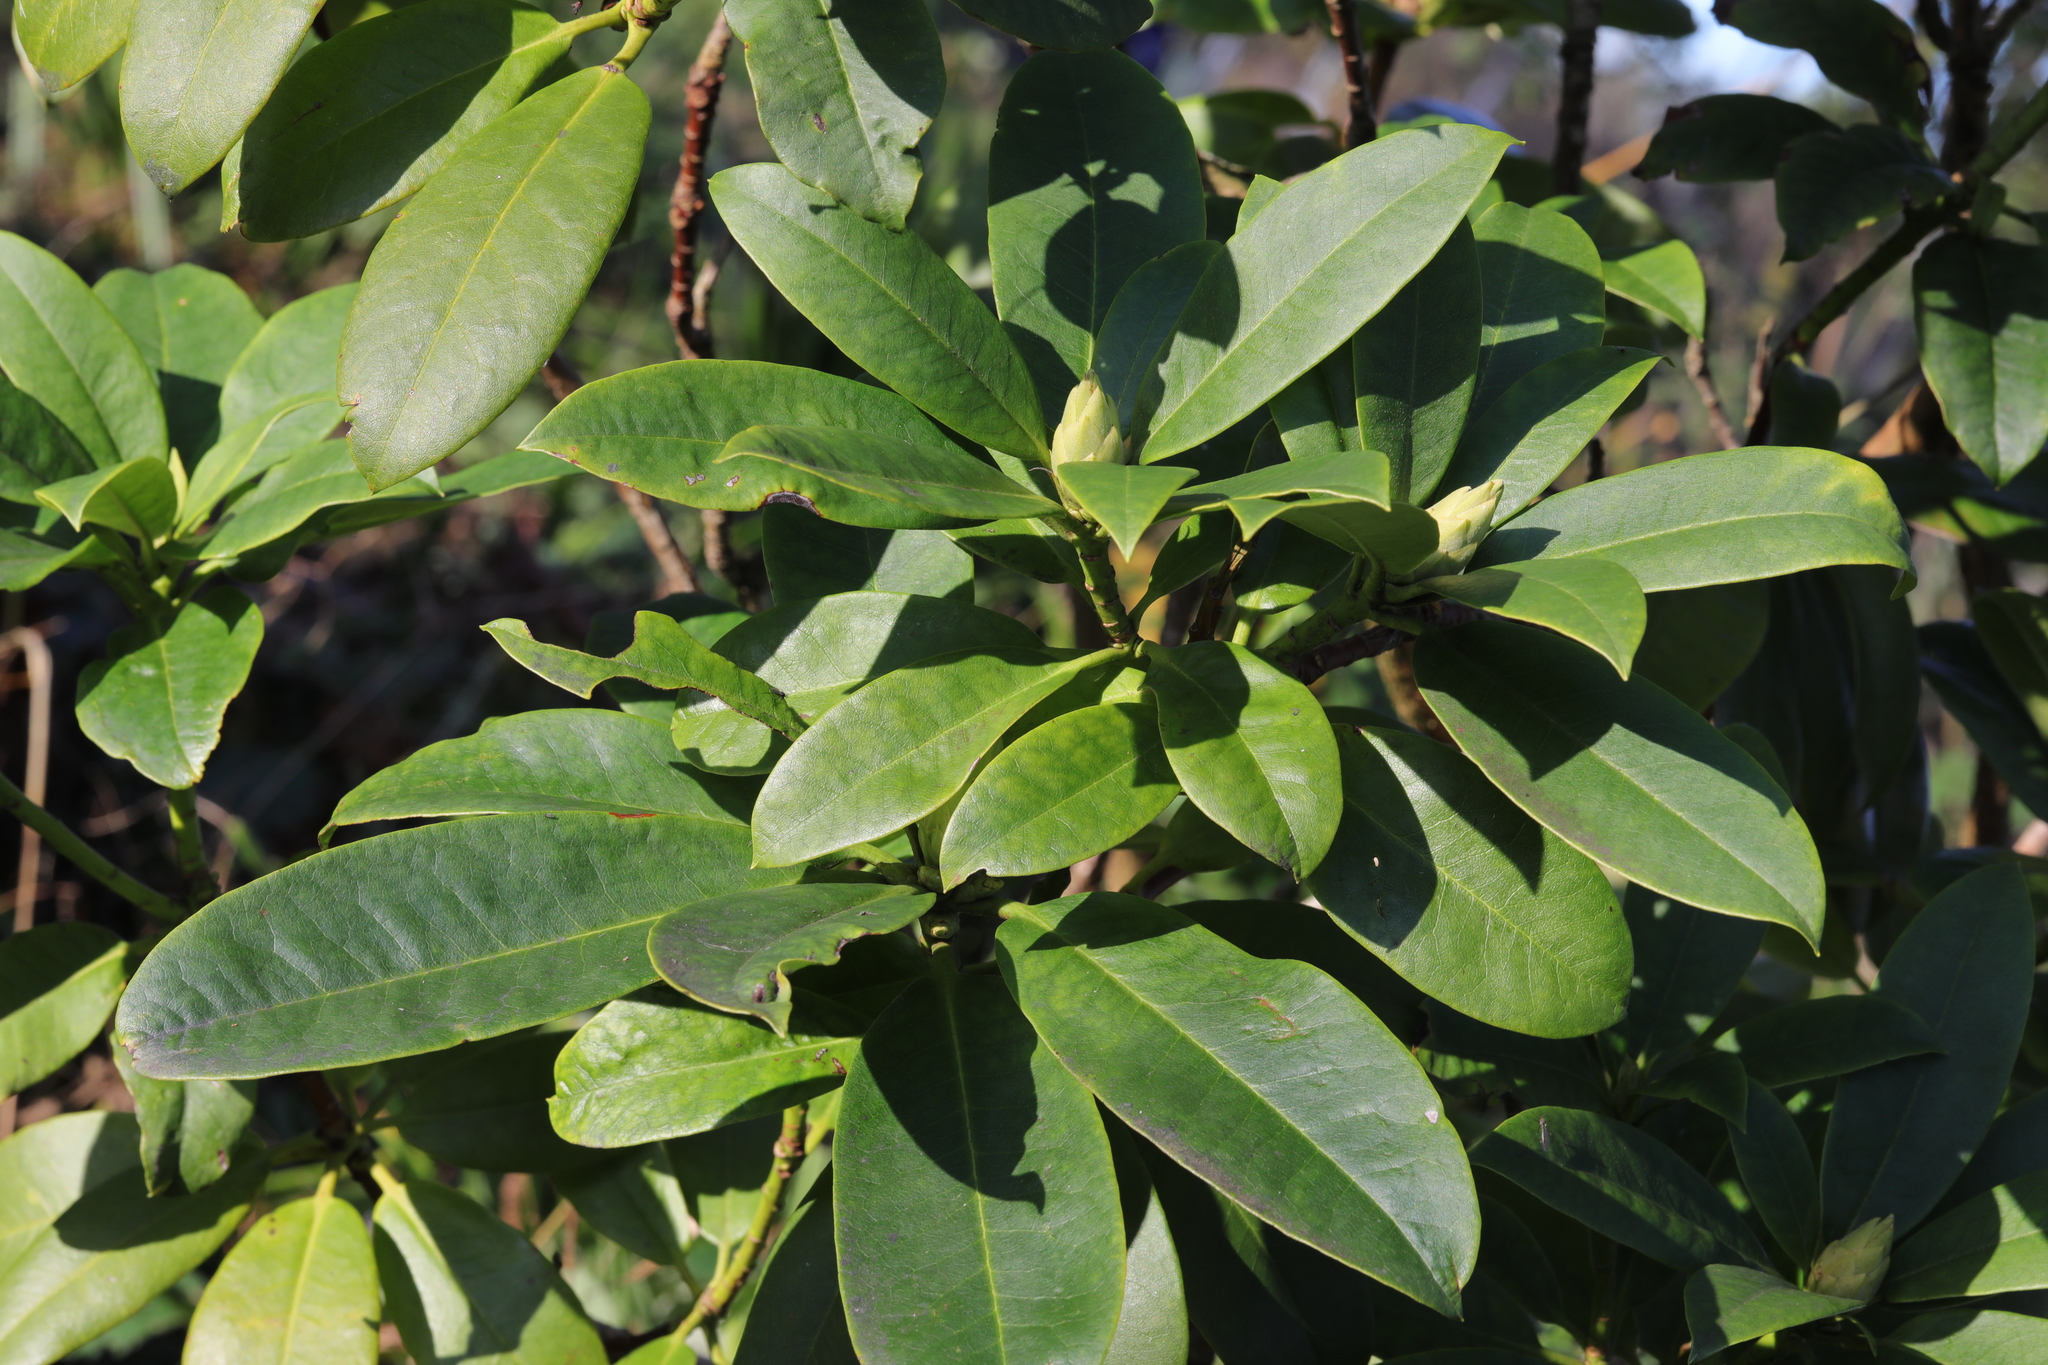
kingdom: Plantae
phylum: Tracheophyta
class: Magnoliopsida
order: Ericales
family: Ericaceae
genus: Rhododendron
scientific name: Rhododendron ponticum
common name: Rhododendron
